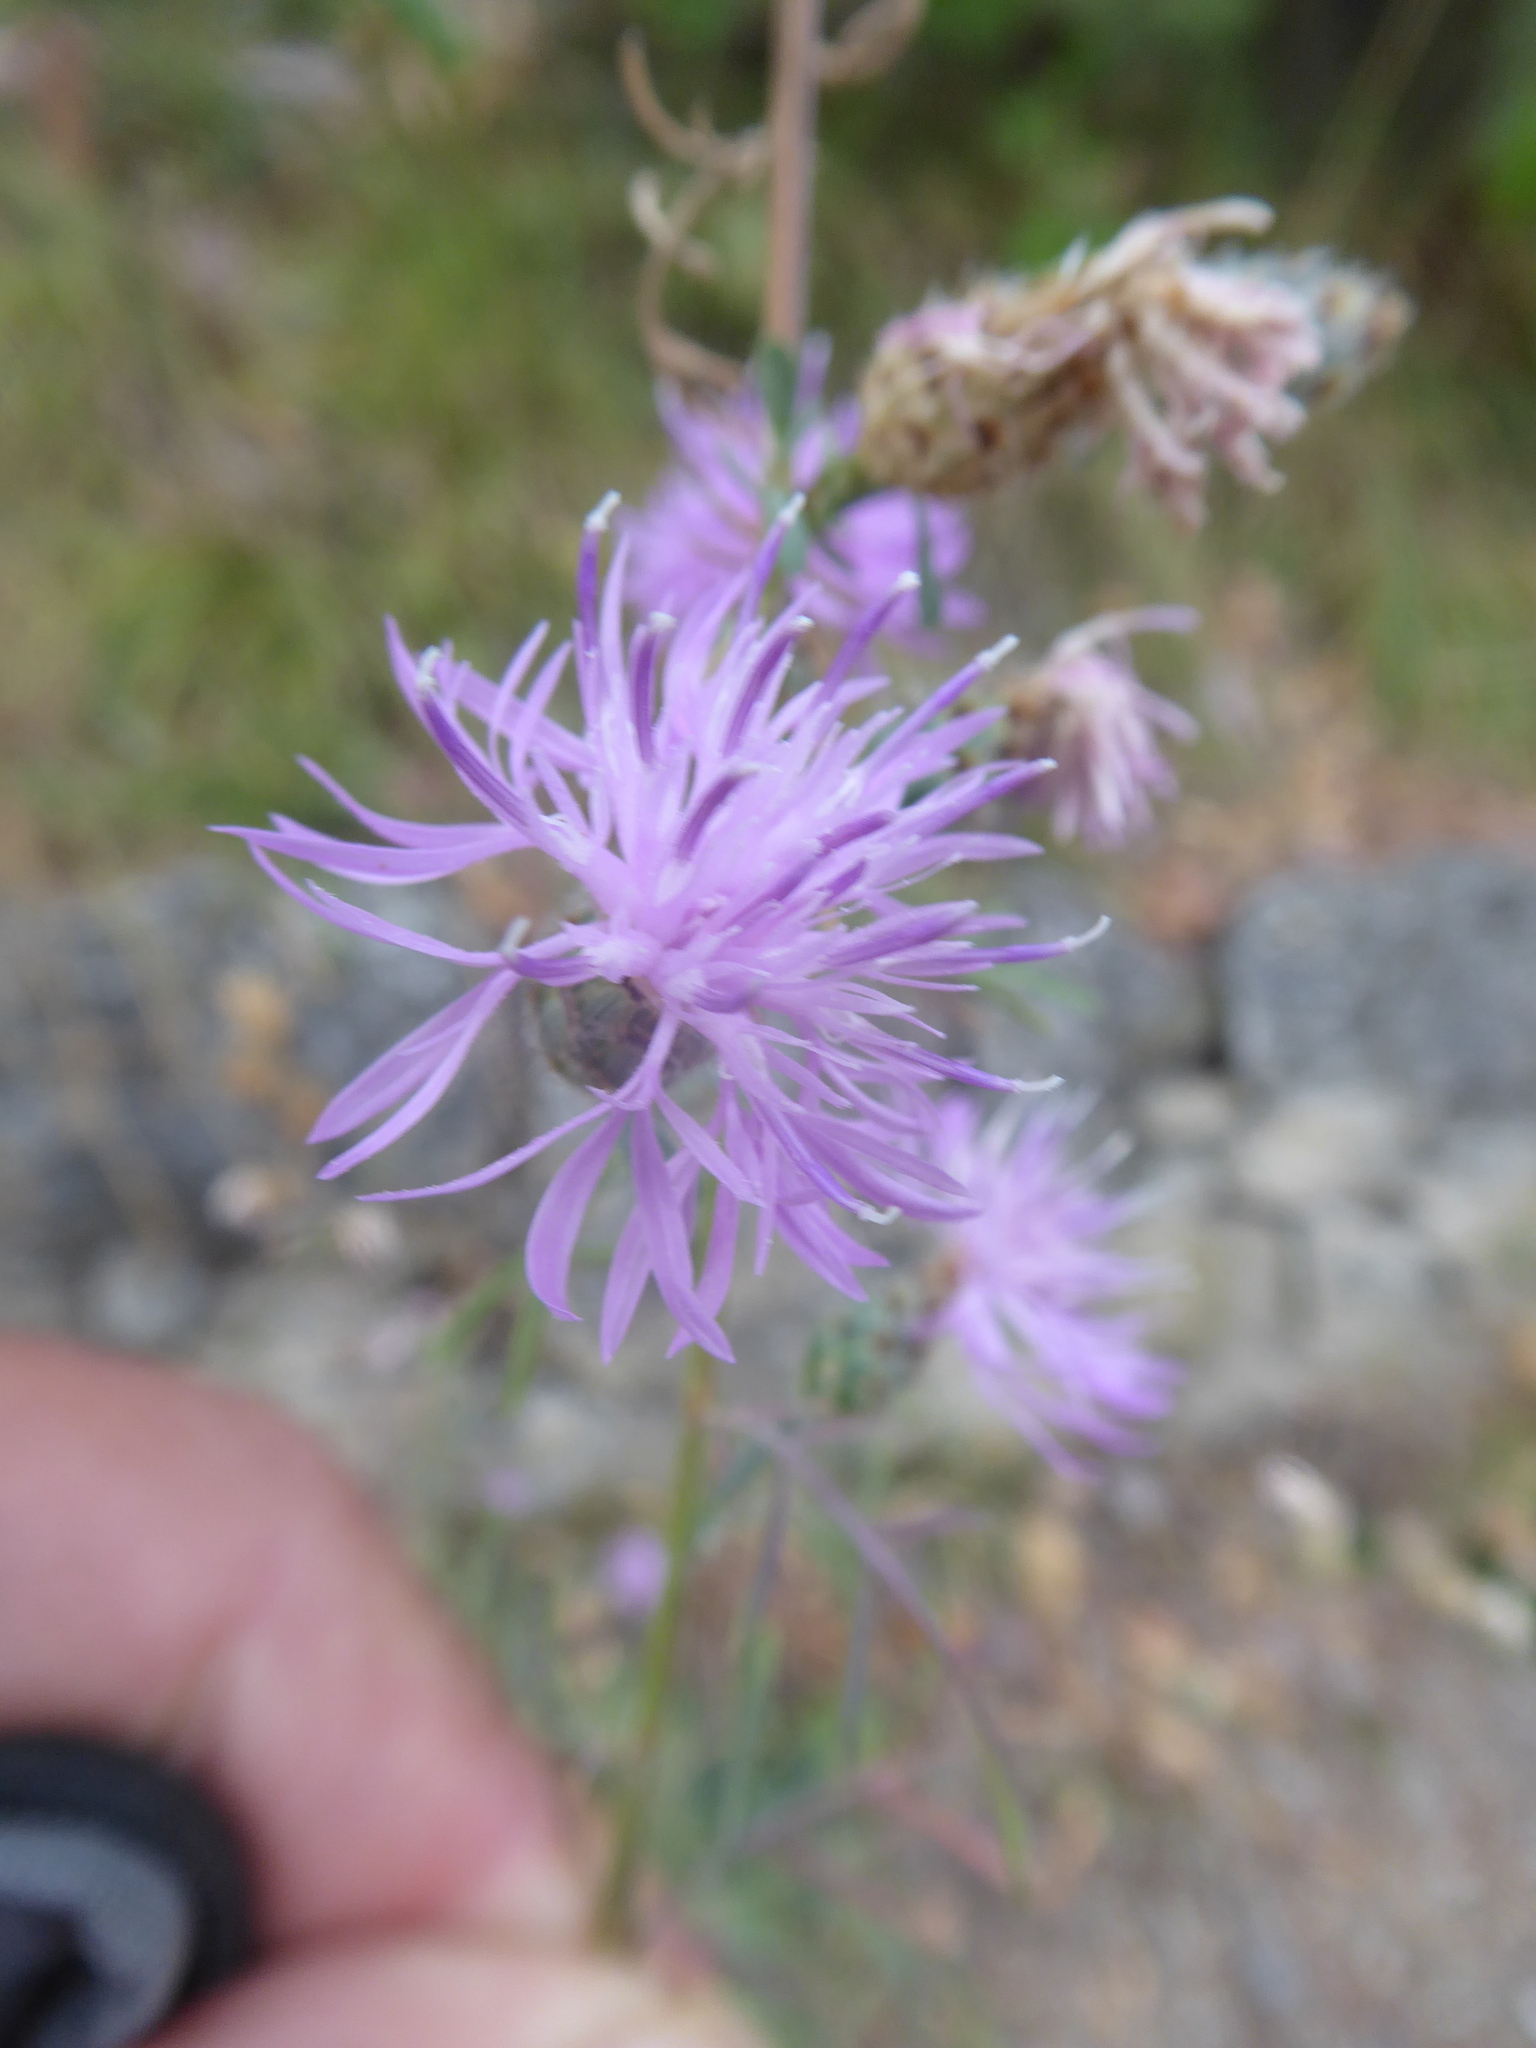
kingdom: Plantae
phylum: Tracheophyta
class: Magnoliopsida
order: Asterales
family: Asteraceae
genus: Centaurea
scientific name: Centaurea stoebe
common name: Spotted knapweed
